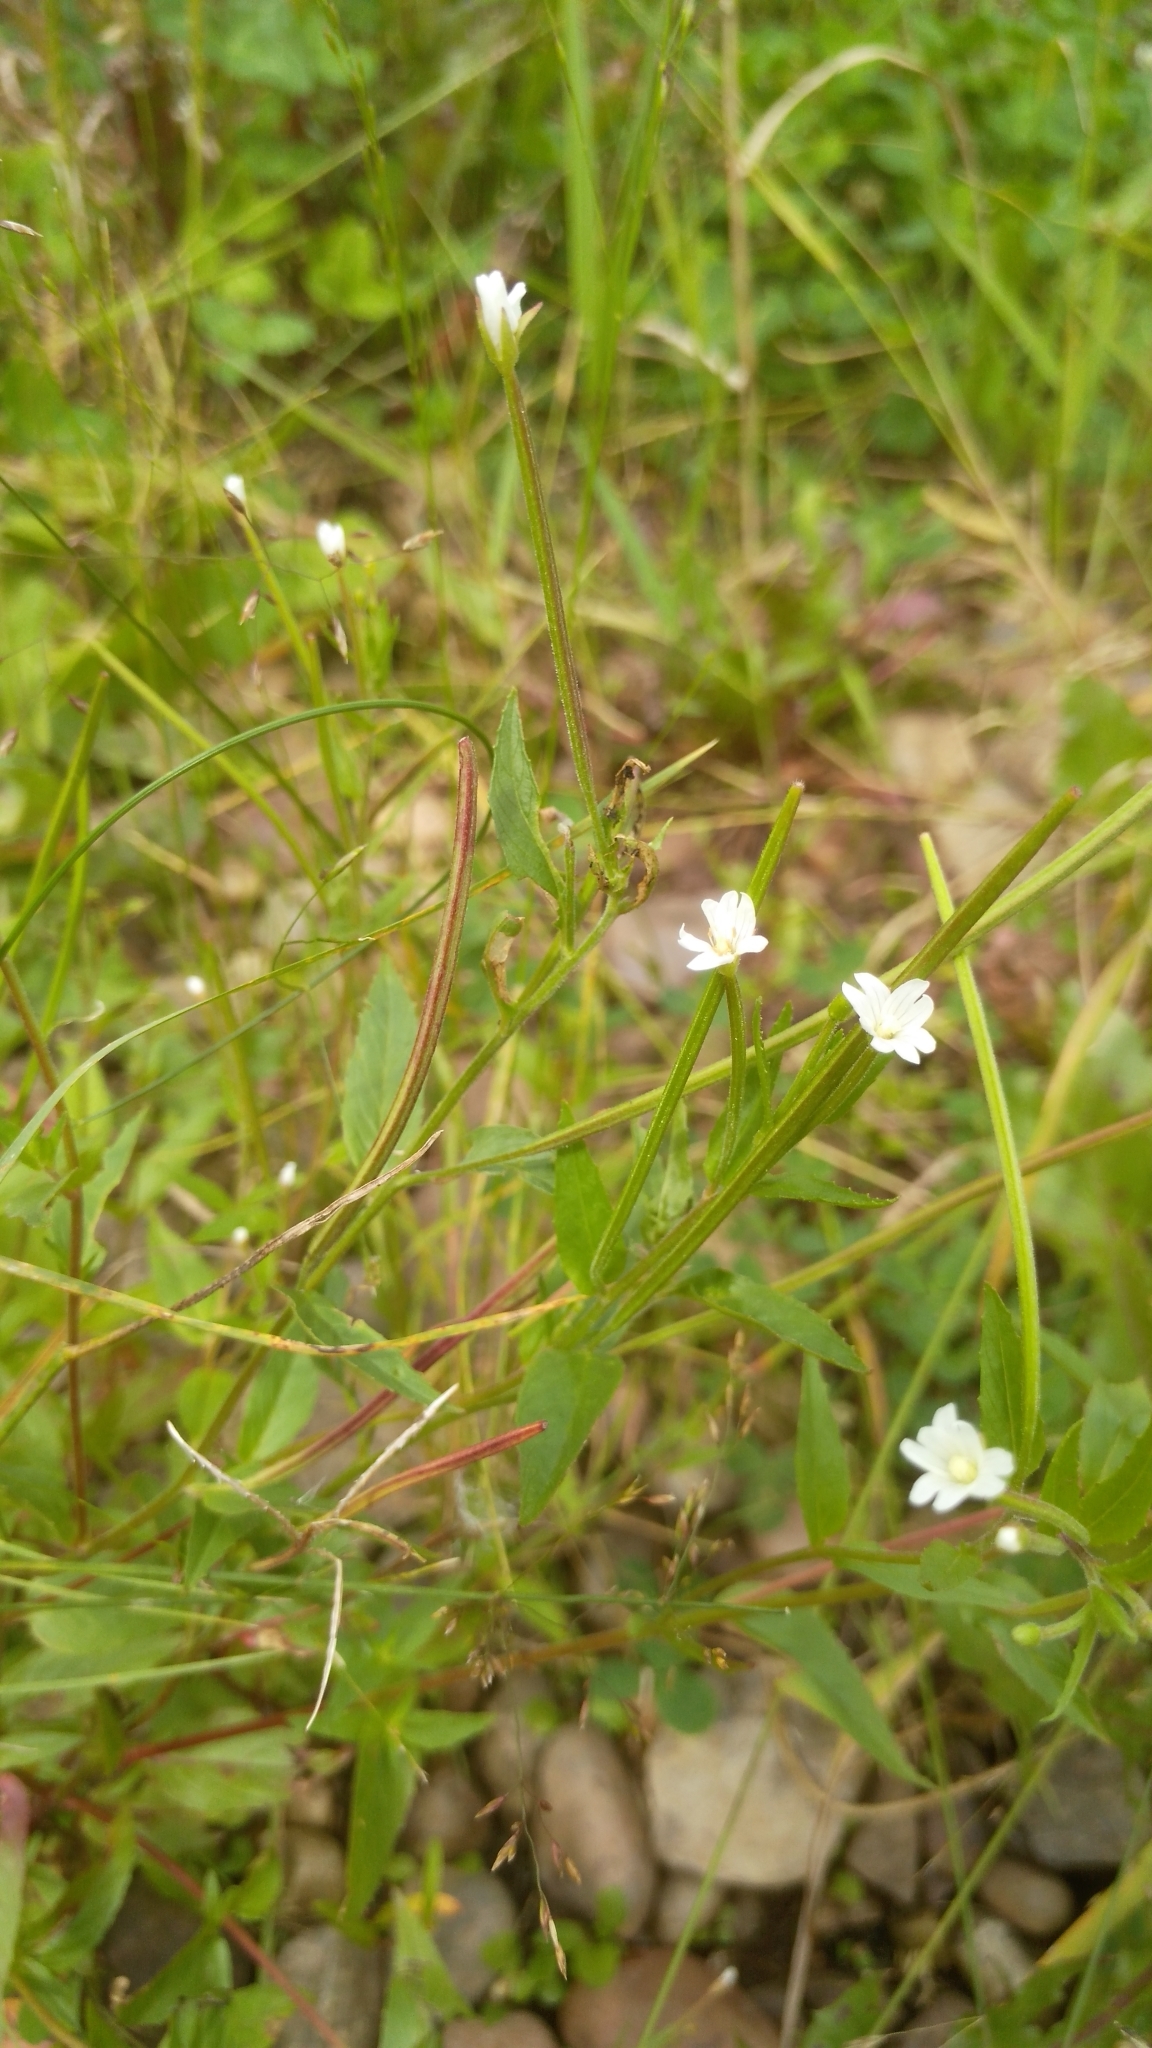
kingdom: Plantae
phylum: Tracheophyta
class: Magnoliopsida
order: Myrtales
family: Onagraceae
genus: Epilobium
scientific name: Epilobium pseudorubescens
